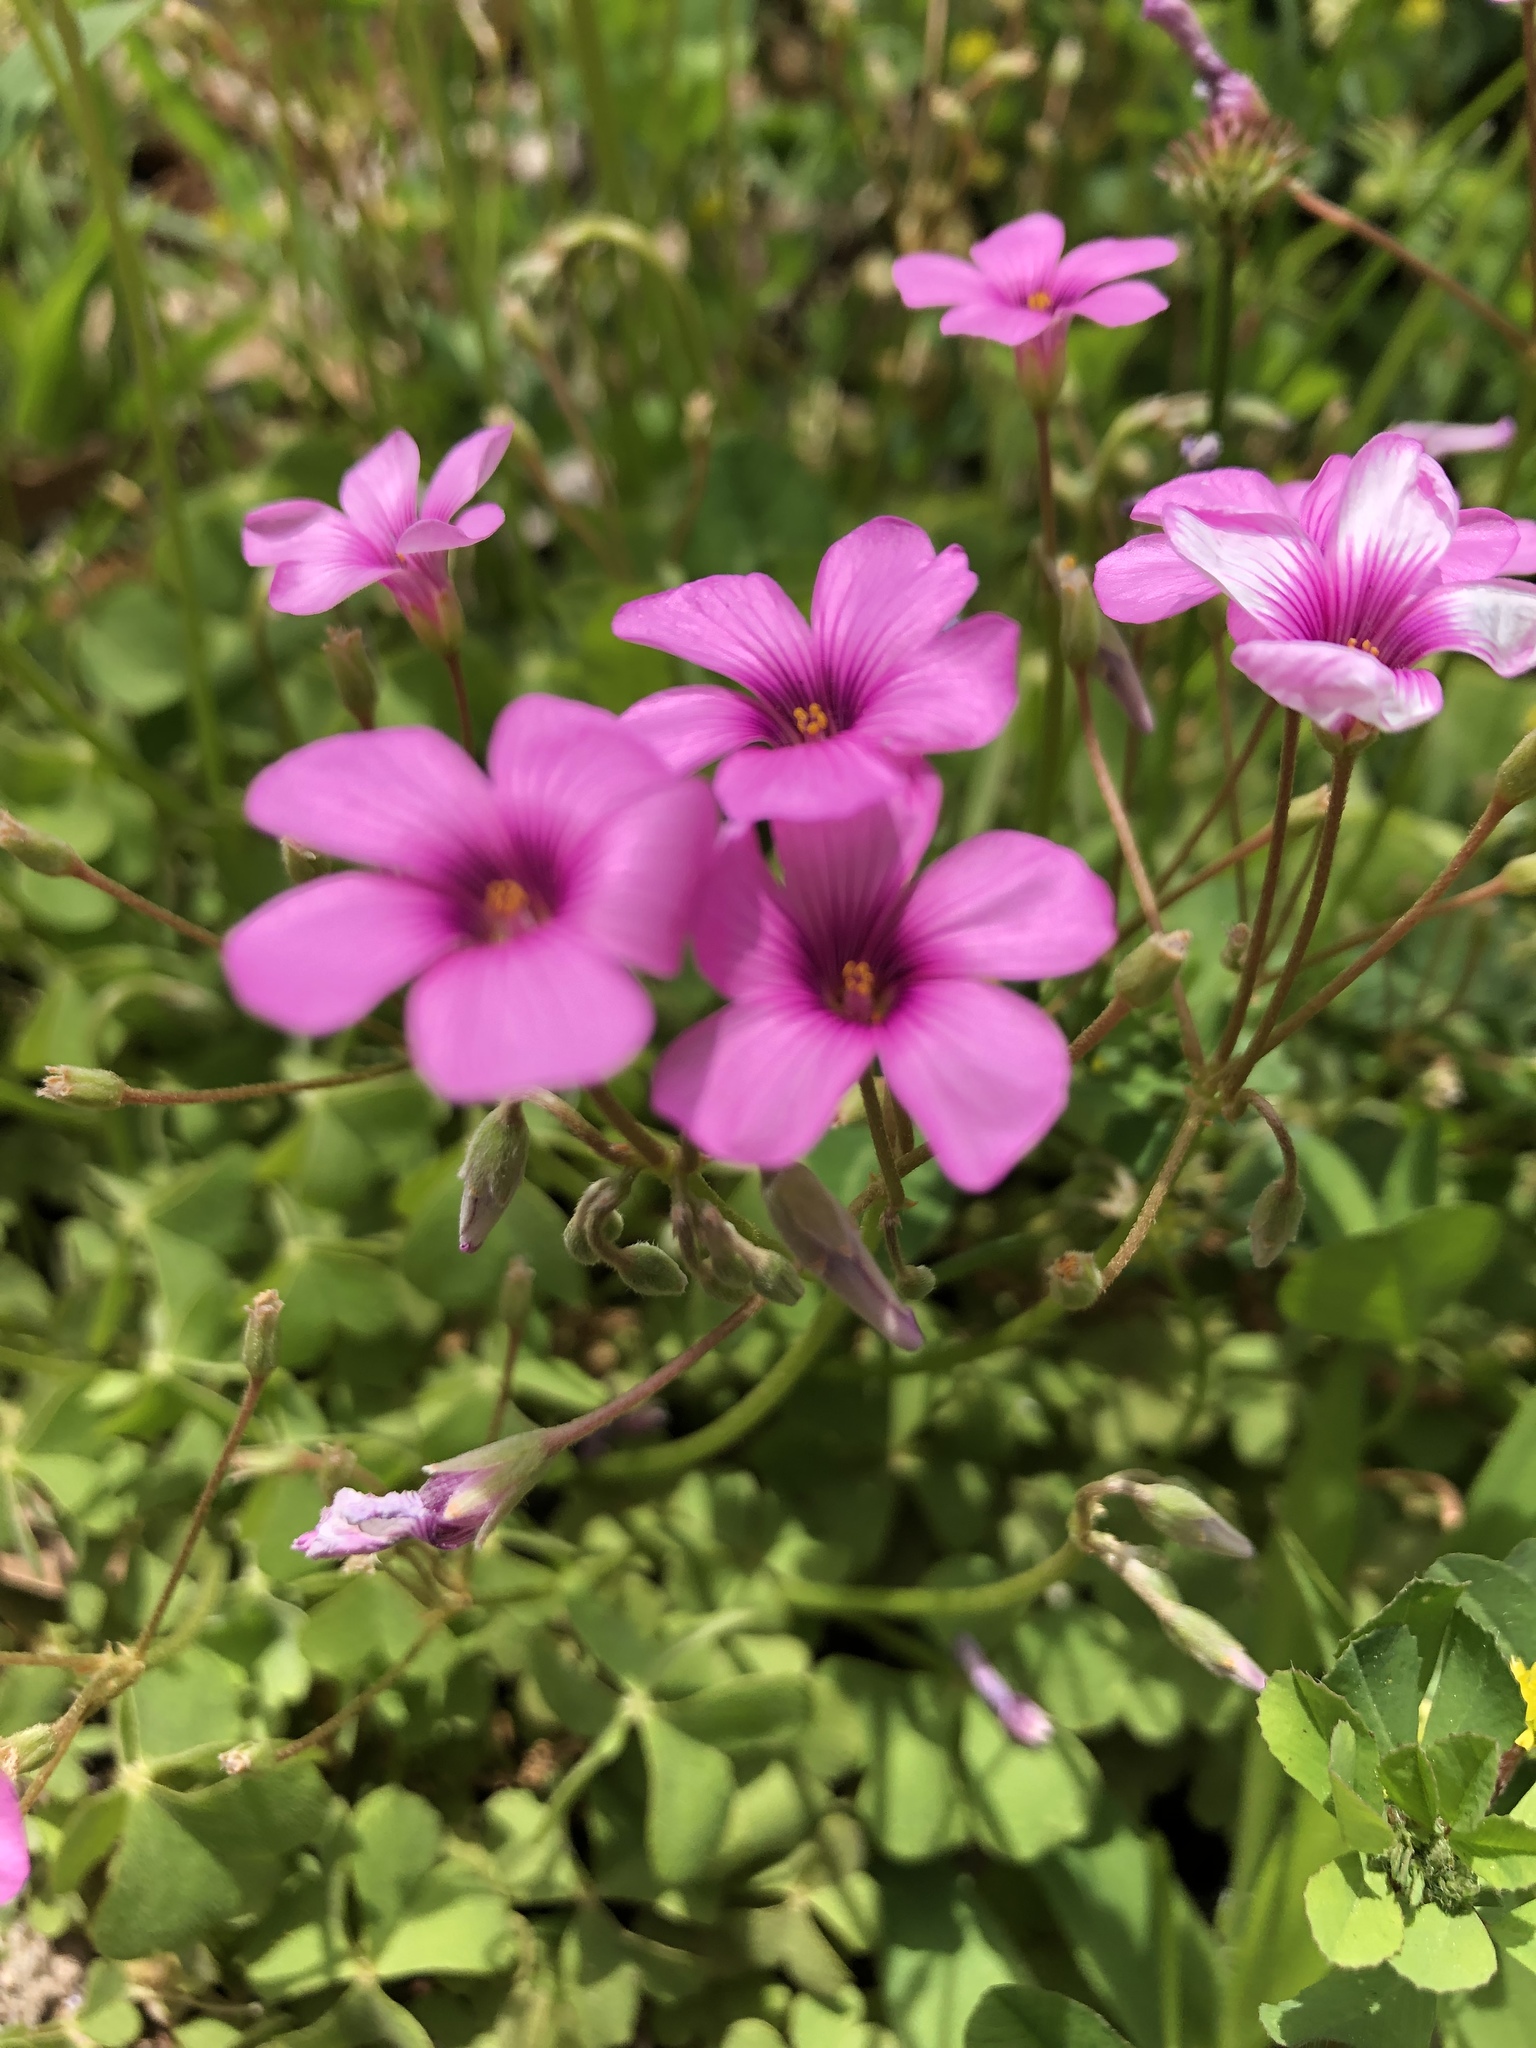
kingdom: Plantae
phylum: Tracheophyta
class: Magnoliopsida
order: Oxalidales
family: Oxalidaceae
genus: Oxalis
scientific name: Oxalis articulata
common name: Pink-sorrel
